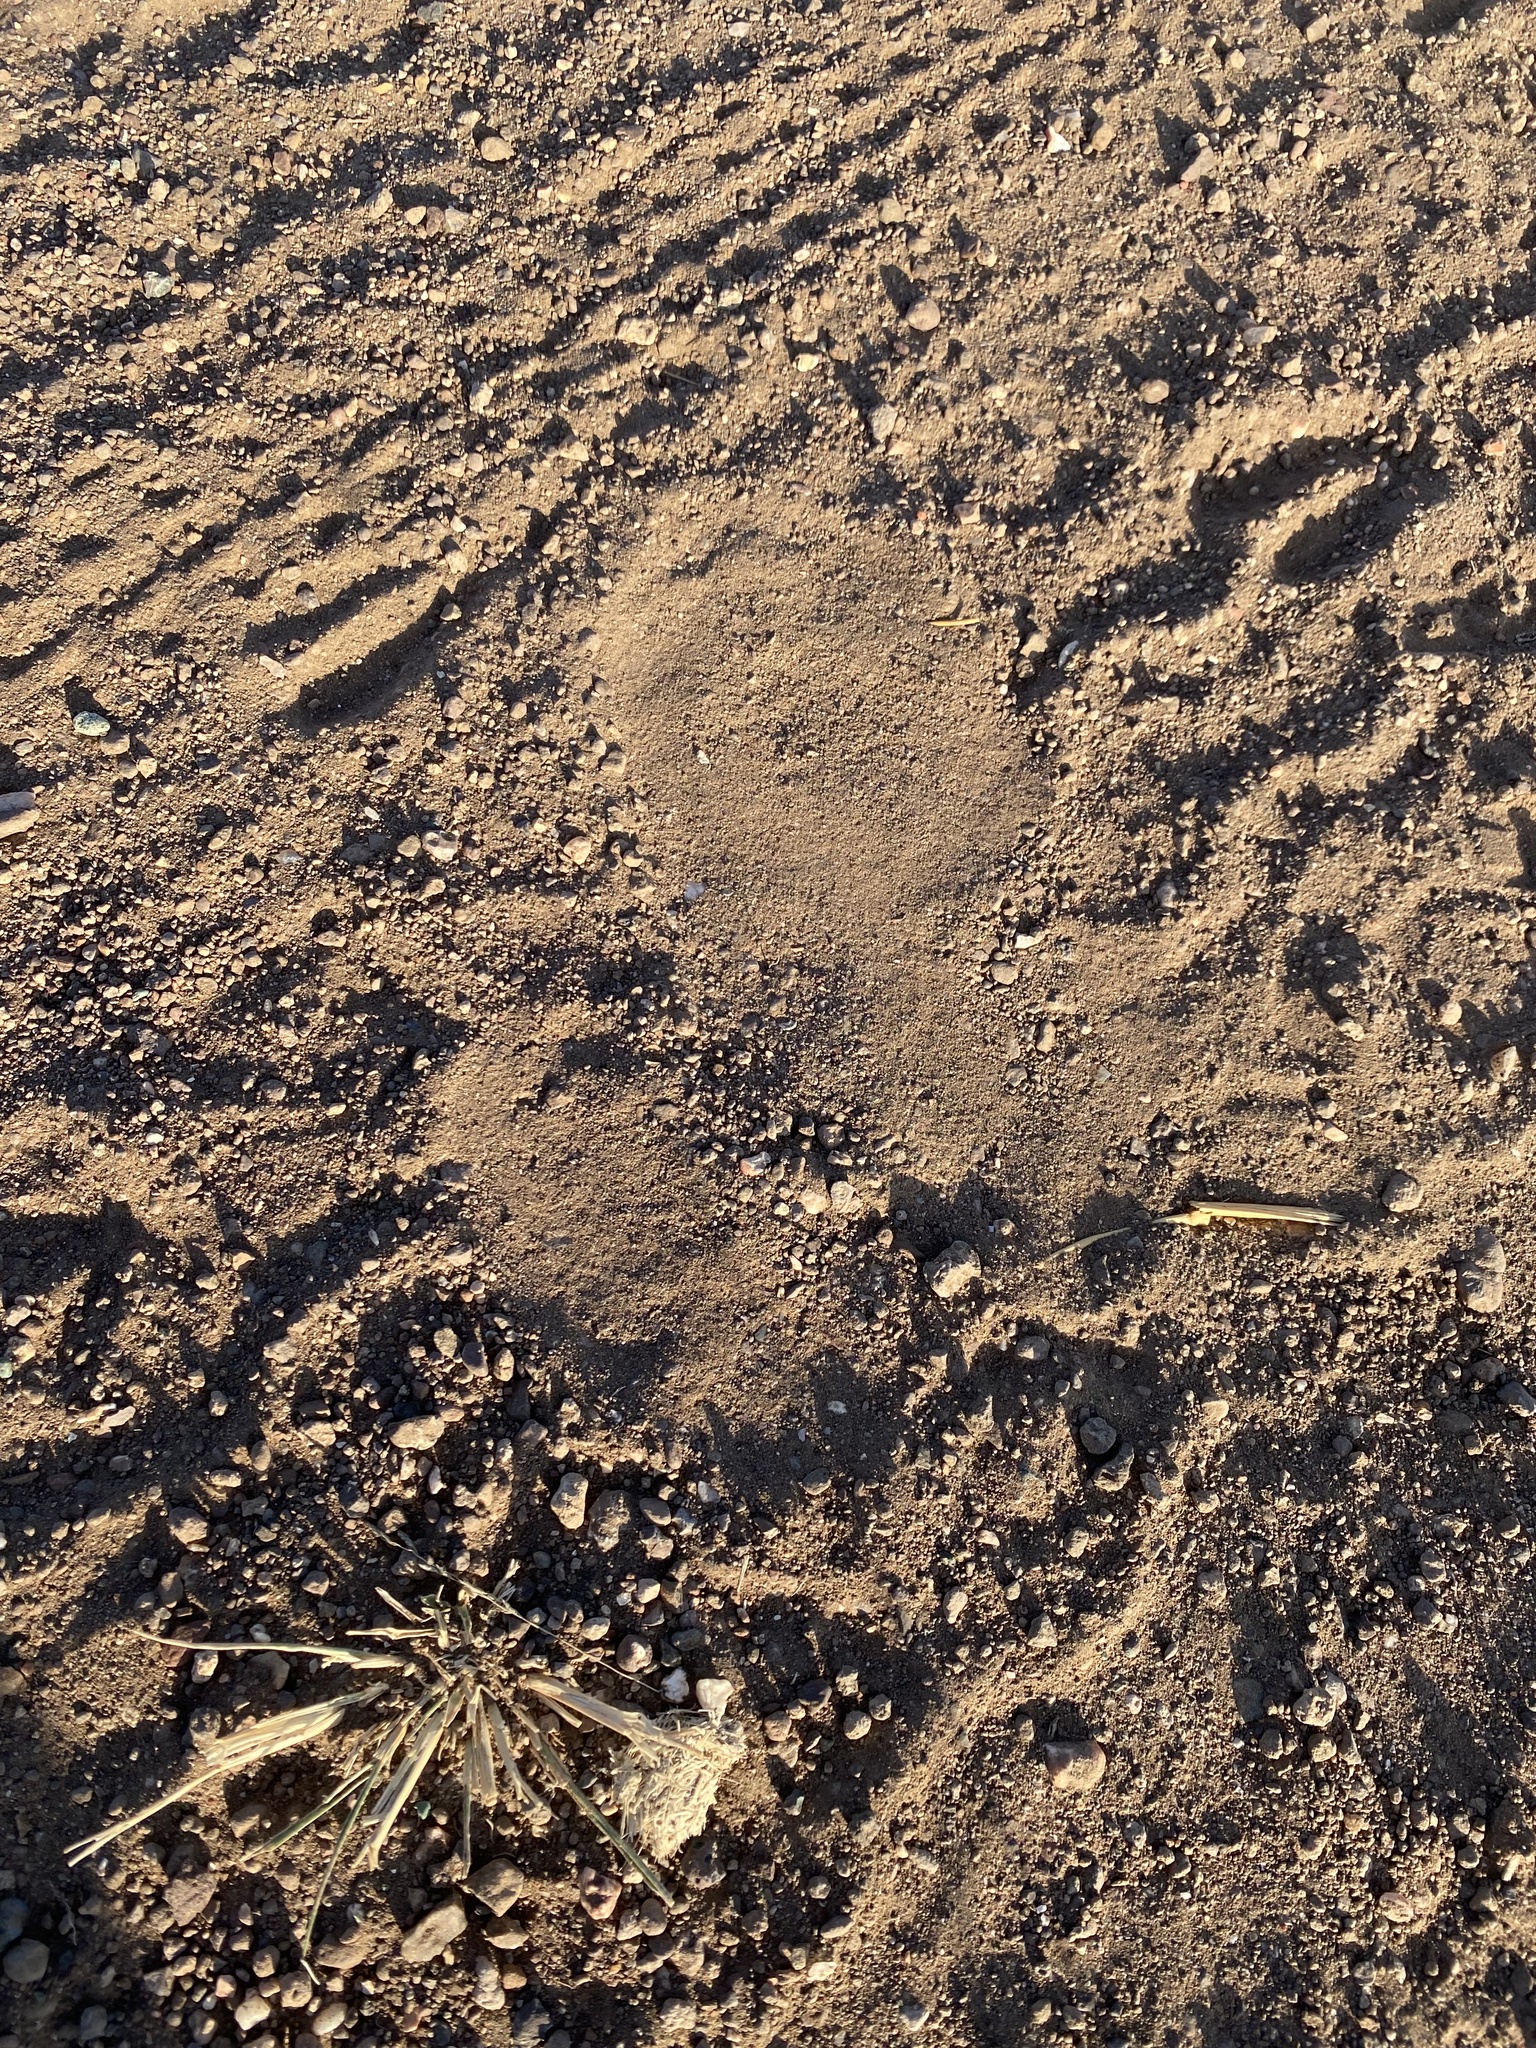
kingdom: Animalia
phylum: Chordata
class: Aves
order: Struthioniformes
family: Struthionidae
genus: Struthio
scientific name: Struthio camelus
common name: Common ostrich
